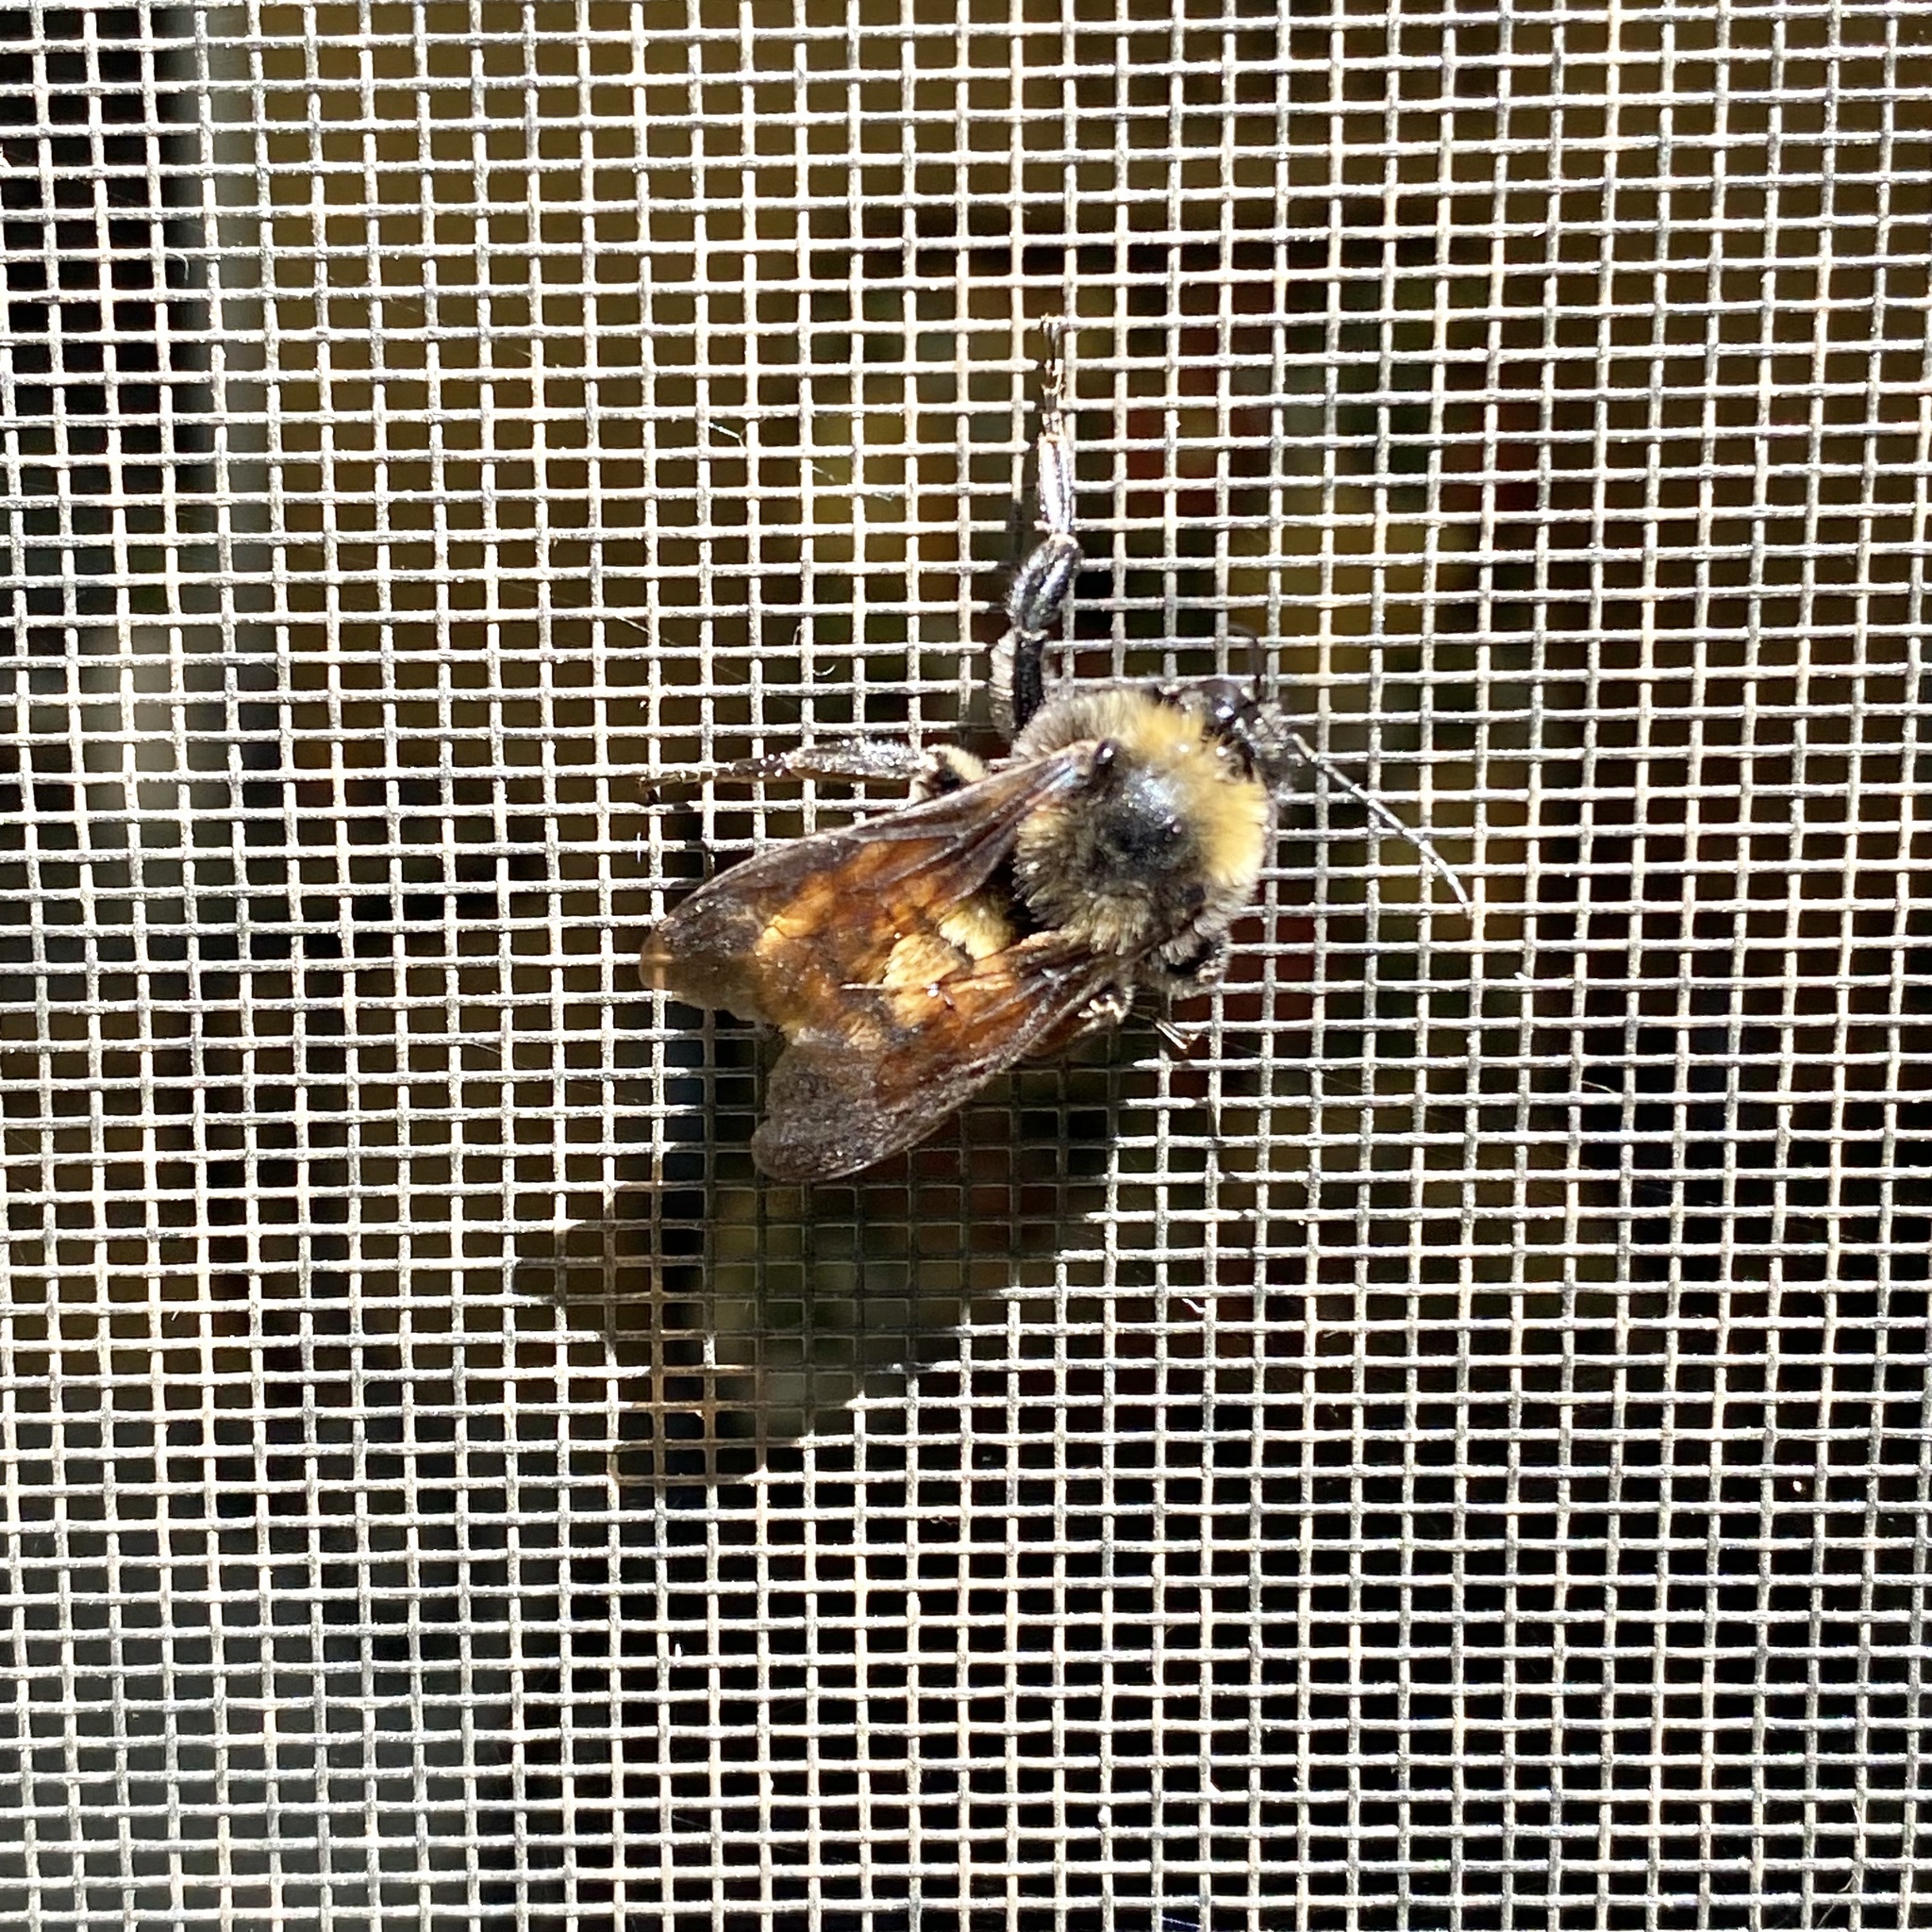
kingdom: Animalia
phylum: Arthropoda
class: Insecta
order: Hymenoptera
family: Apidae
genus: Bombus
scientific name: Bombus pensylvanicus
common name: Bumble bee
